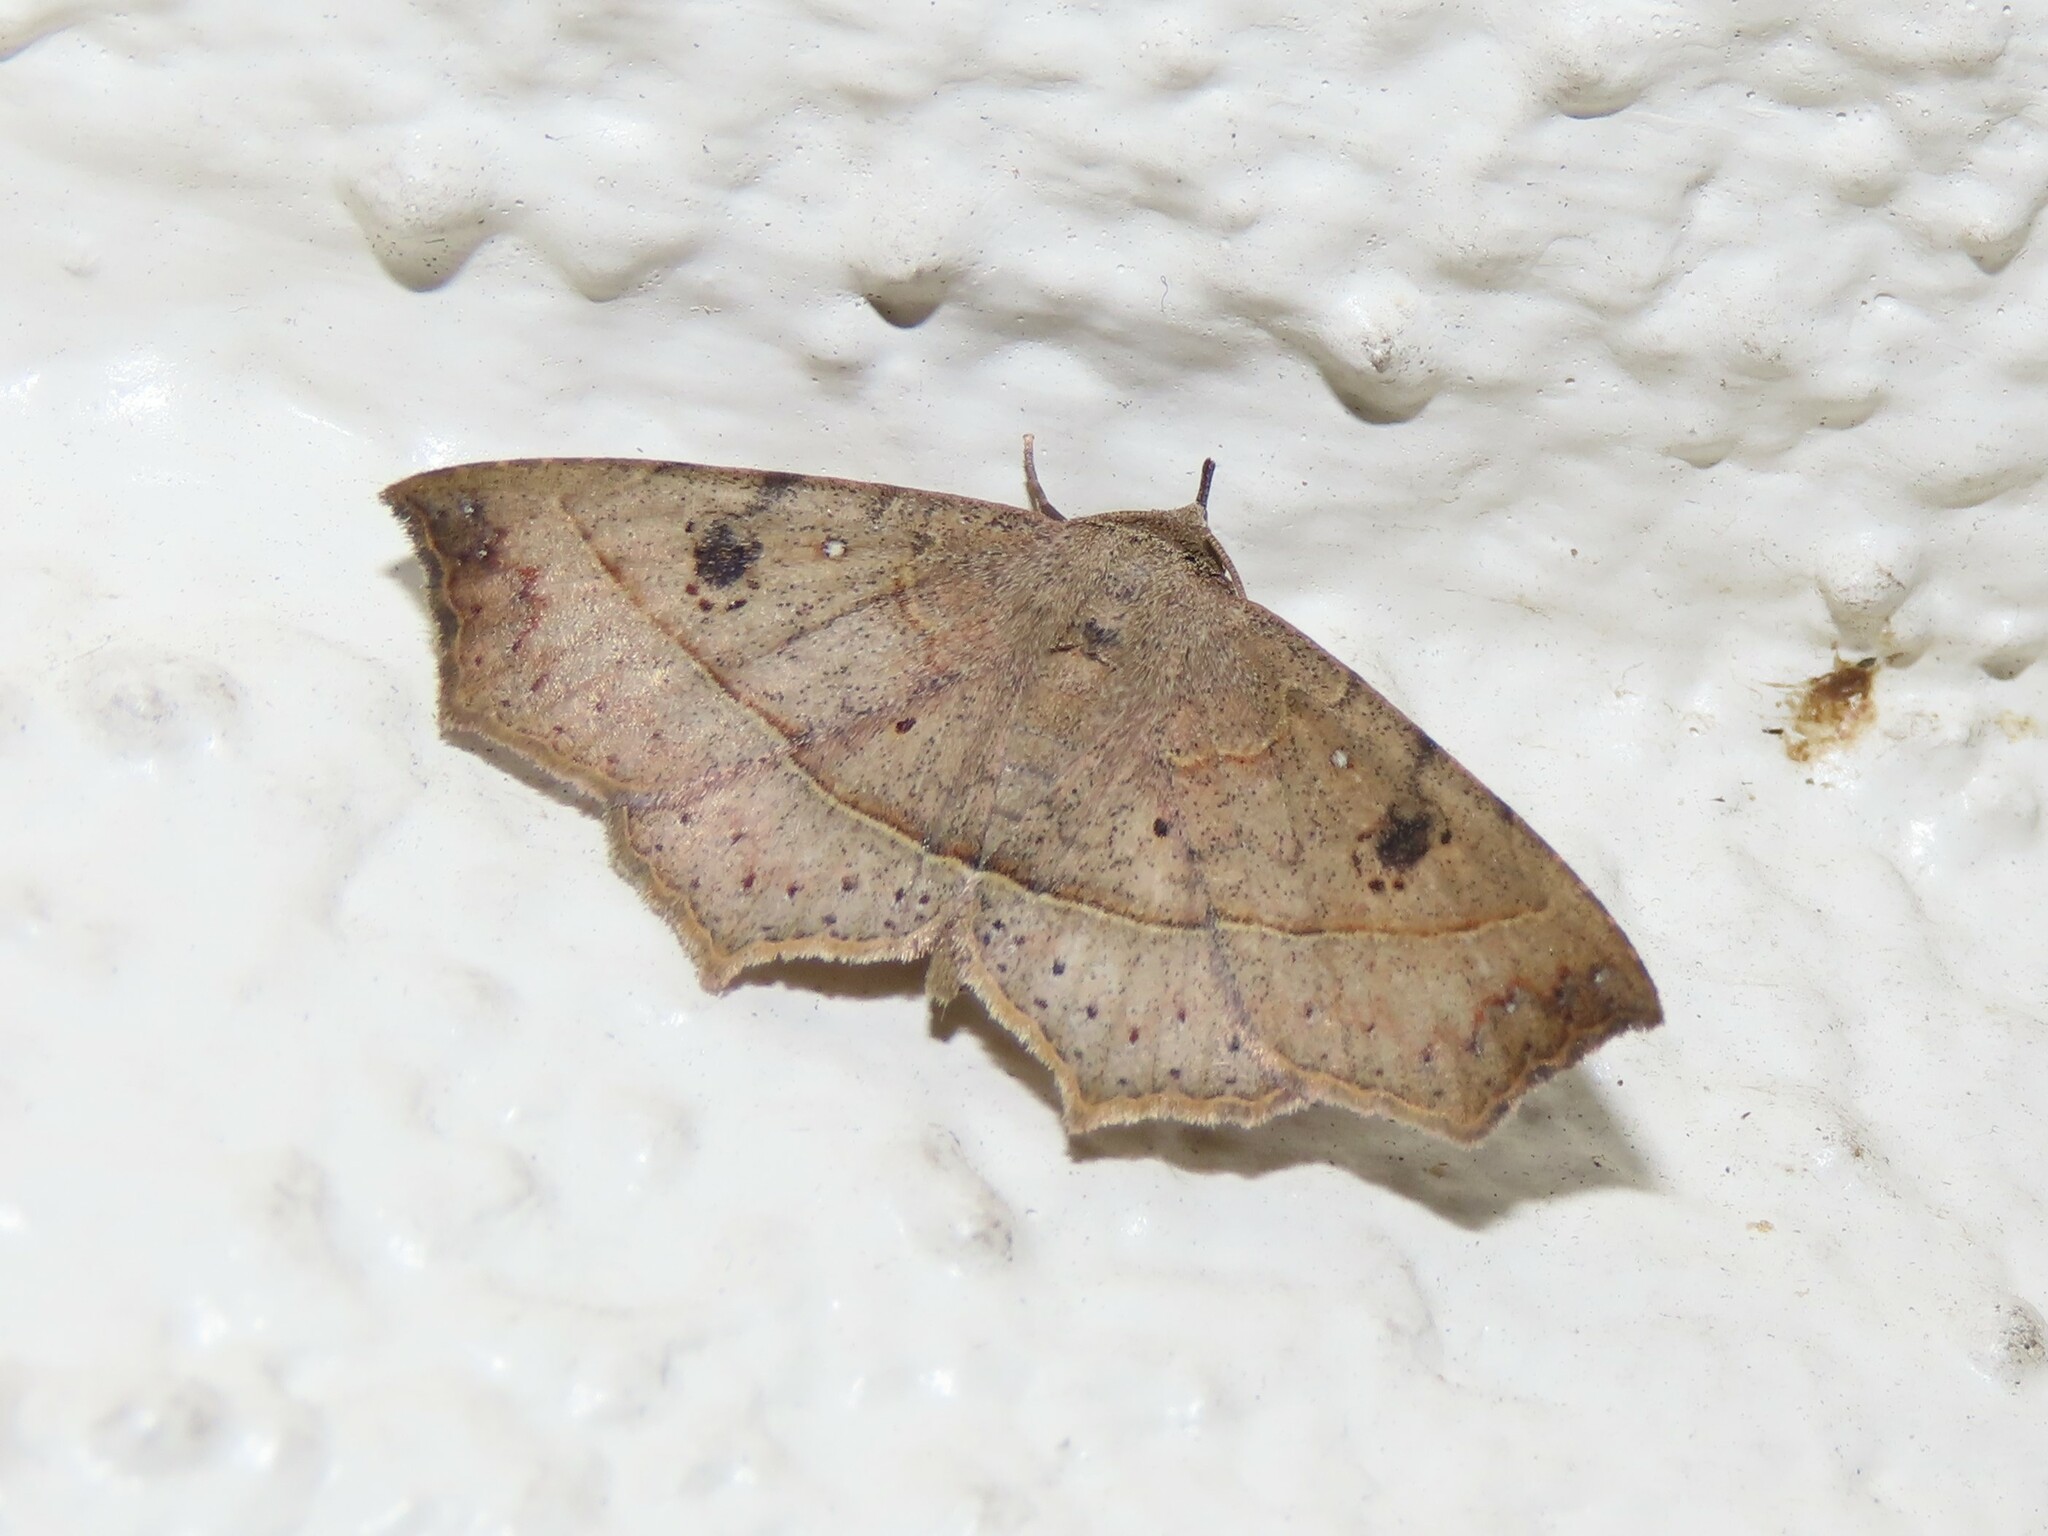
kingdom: Animalia
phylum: Arthropoda
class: Insecta
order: Lepidoptera
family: Erebidae
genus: Ephyrodes
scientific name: Ephyrodes cacata
